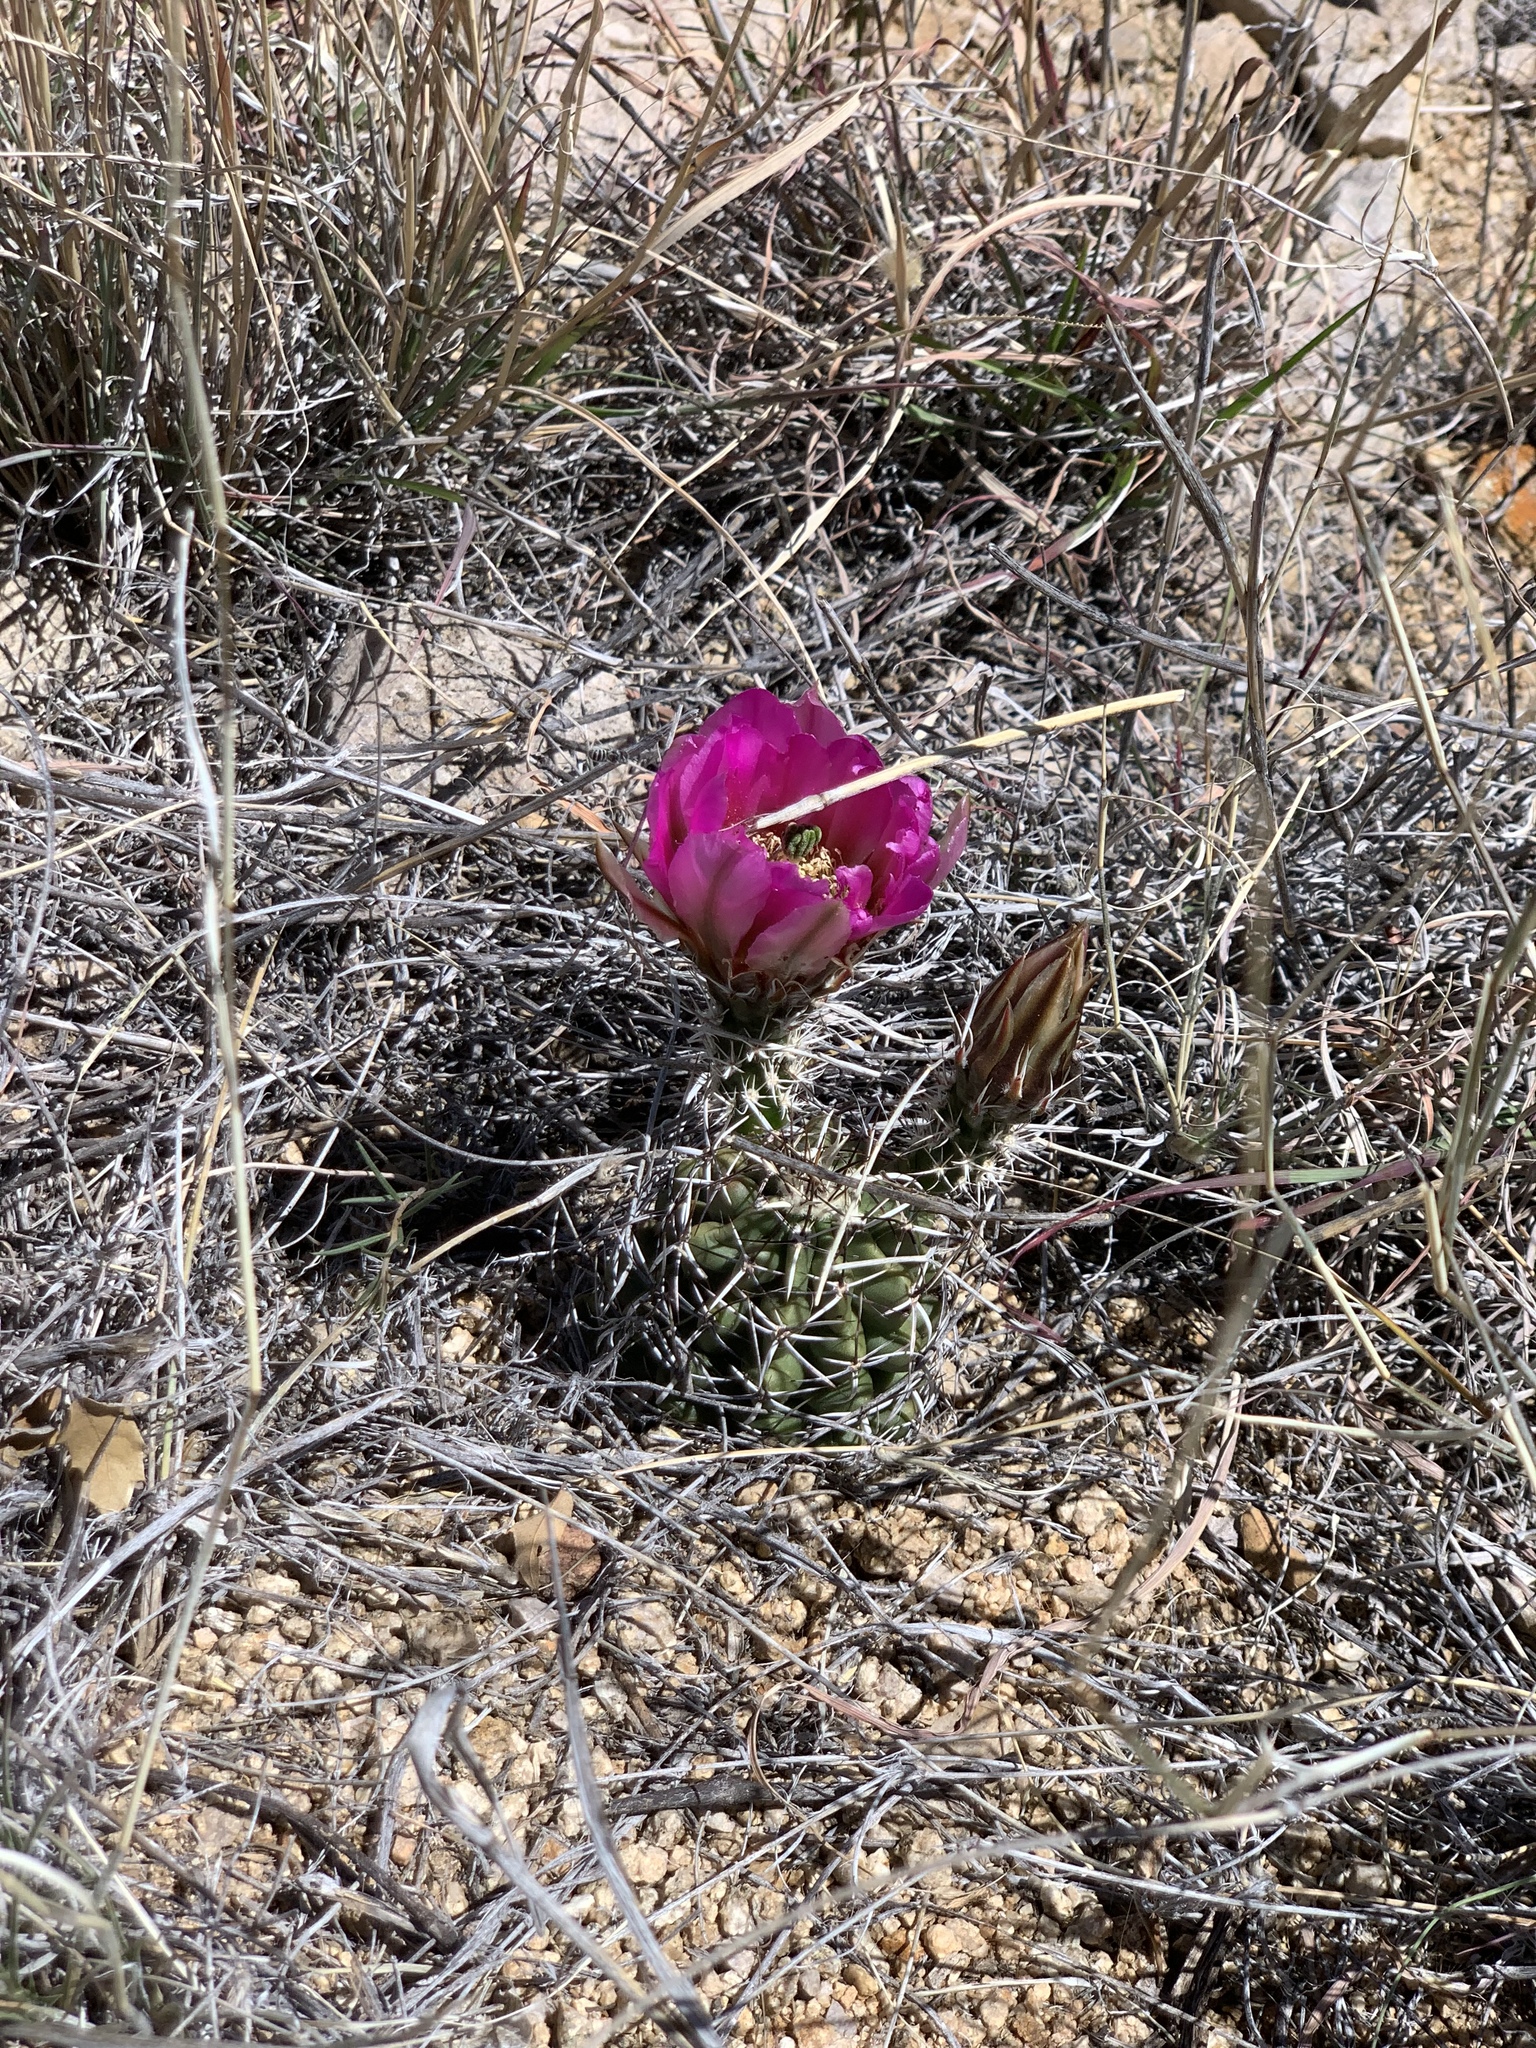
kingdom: Plantae
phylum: Tracheophyta
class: Magnoliopsida
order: Caryophyllales
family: Cactaceae
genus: Echinocereus
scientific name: Echinocereus fendleri
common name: Fendler's hedgehog cactus
